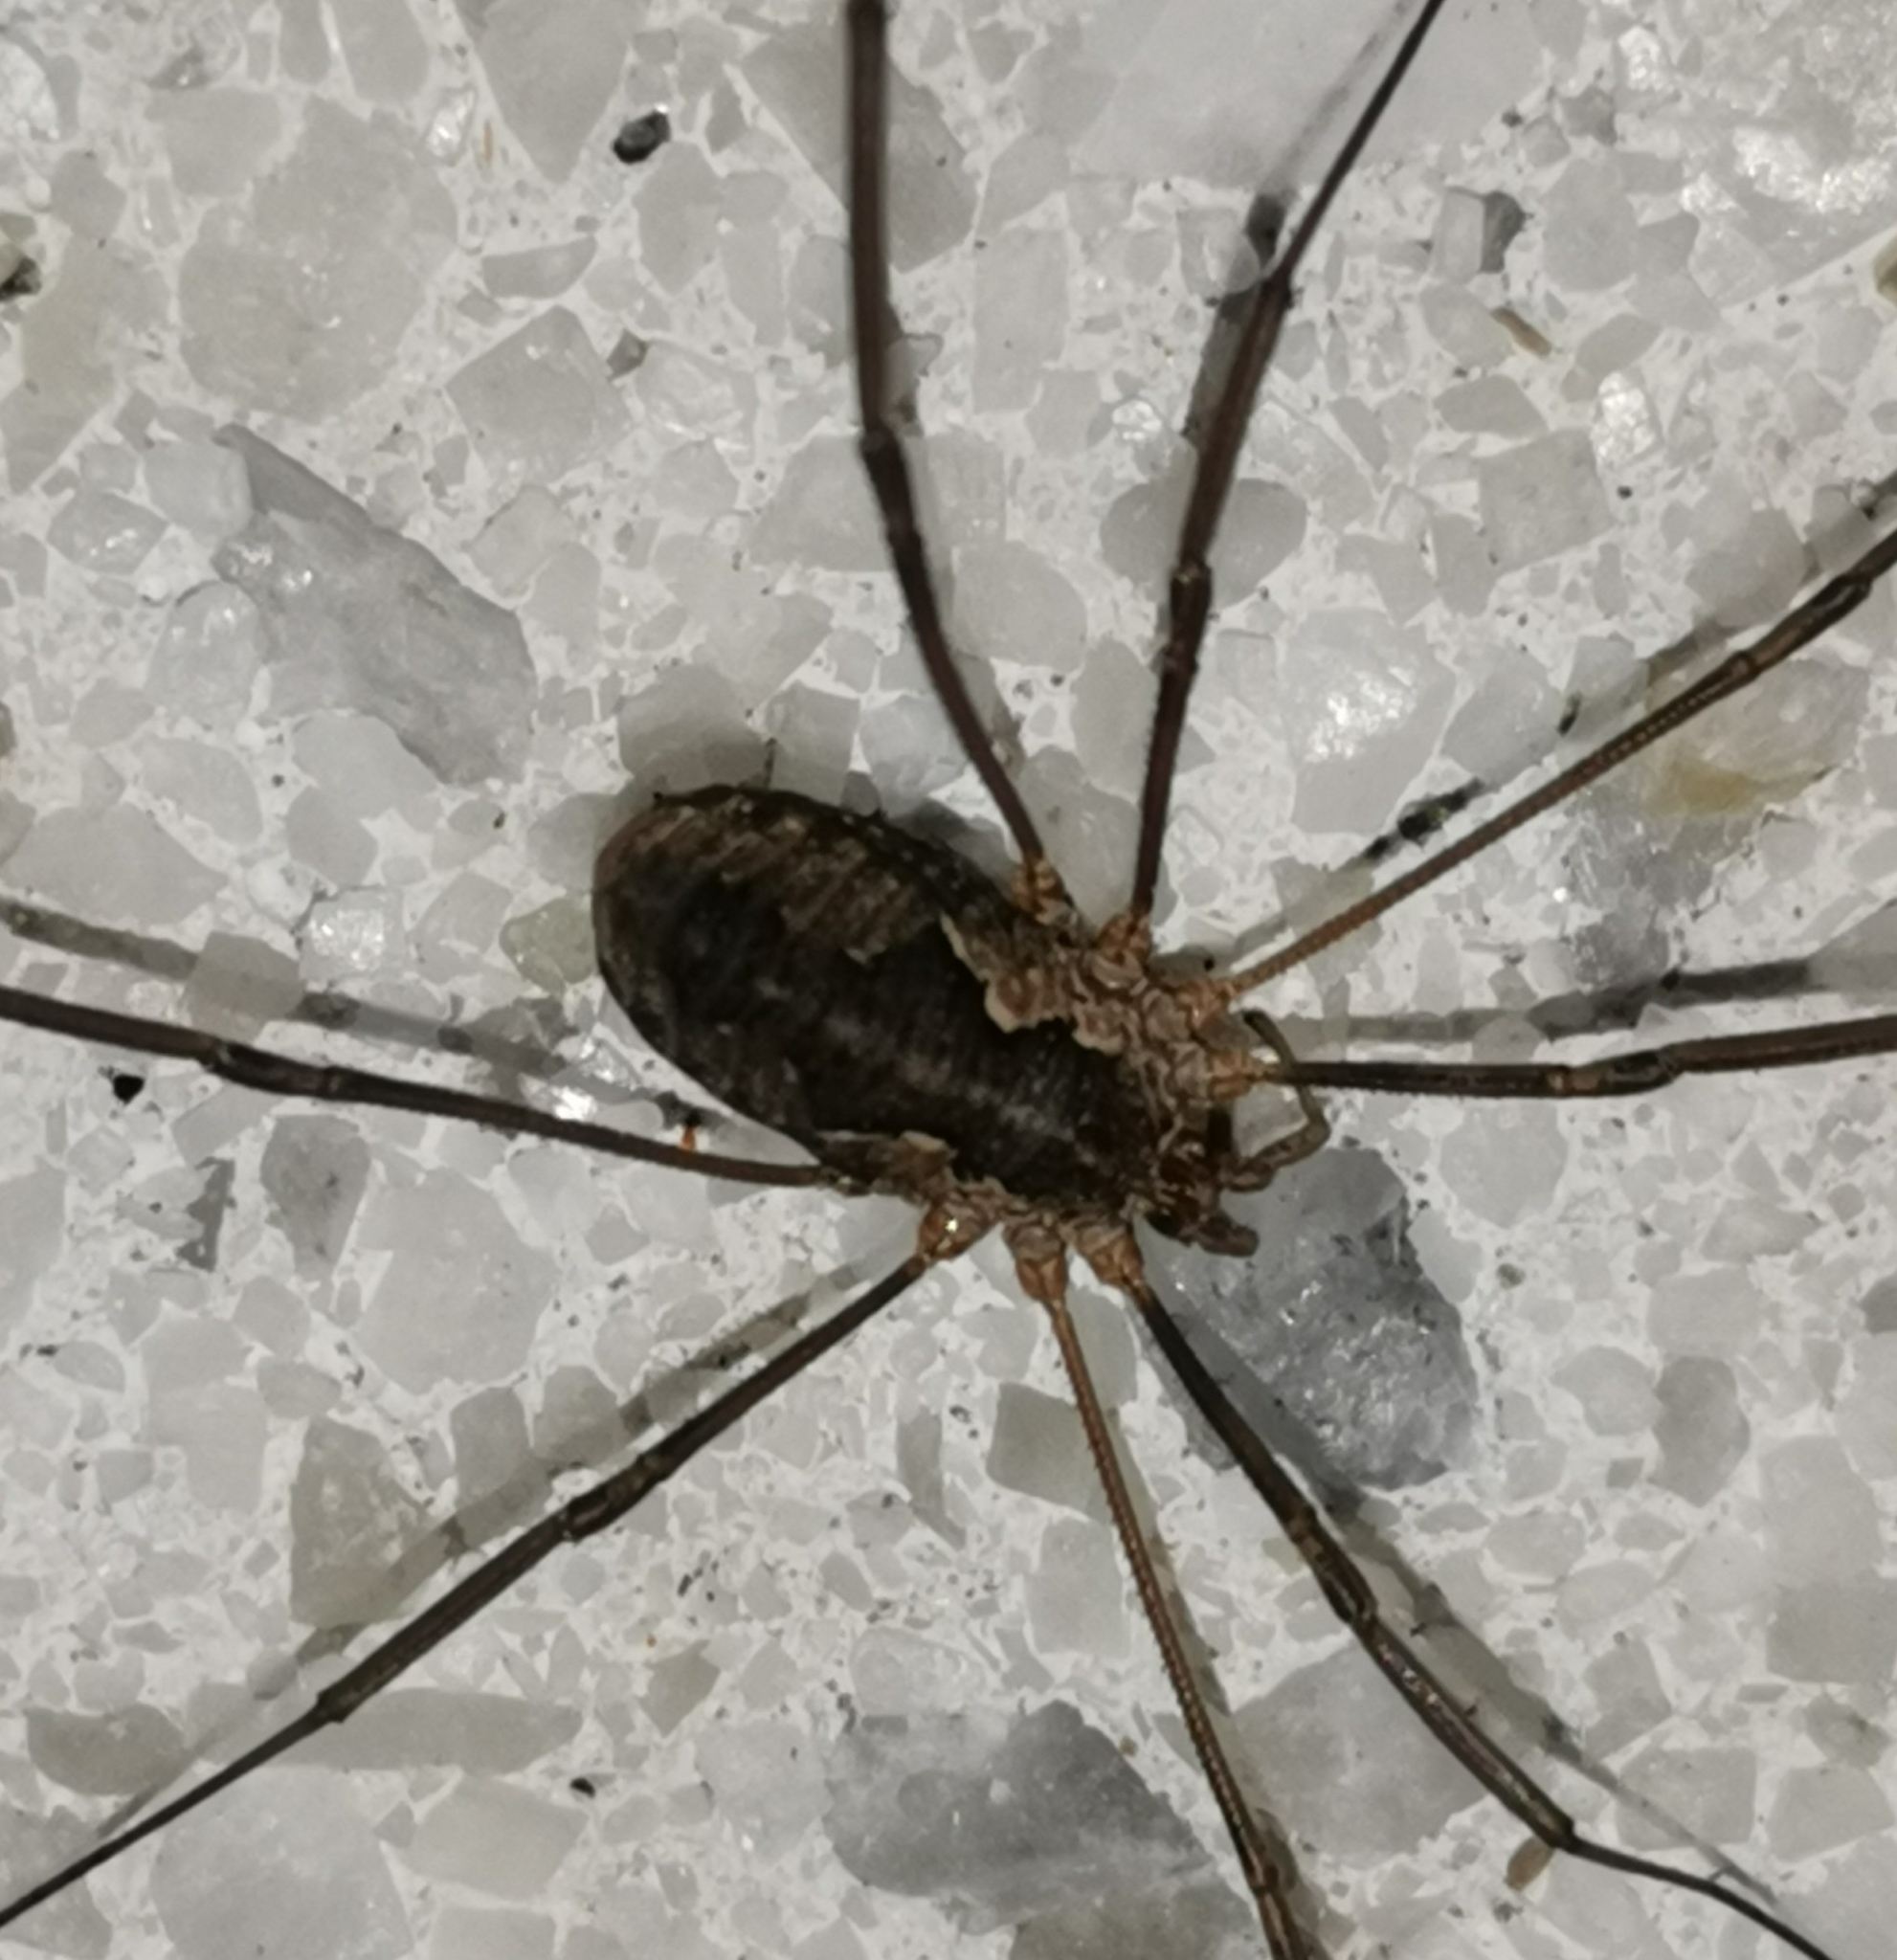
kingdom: Animalia
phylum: Arthropoda
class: Arachnida
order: Opiliones
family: Phalangiidae
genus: Phalangium
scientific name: Phalangium opilio
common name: Daddy longleg
